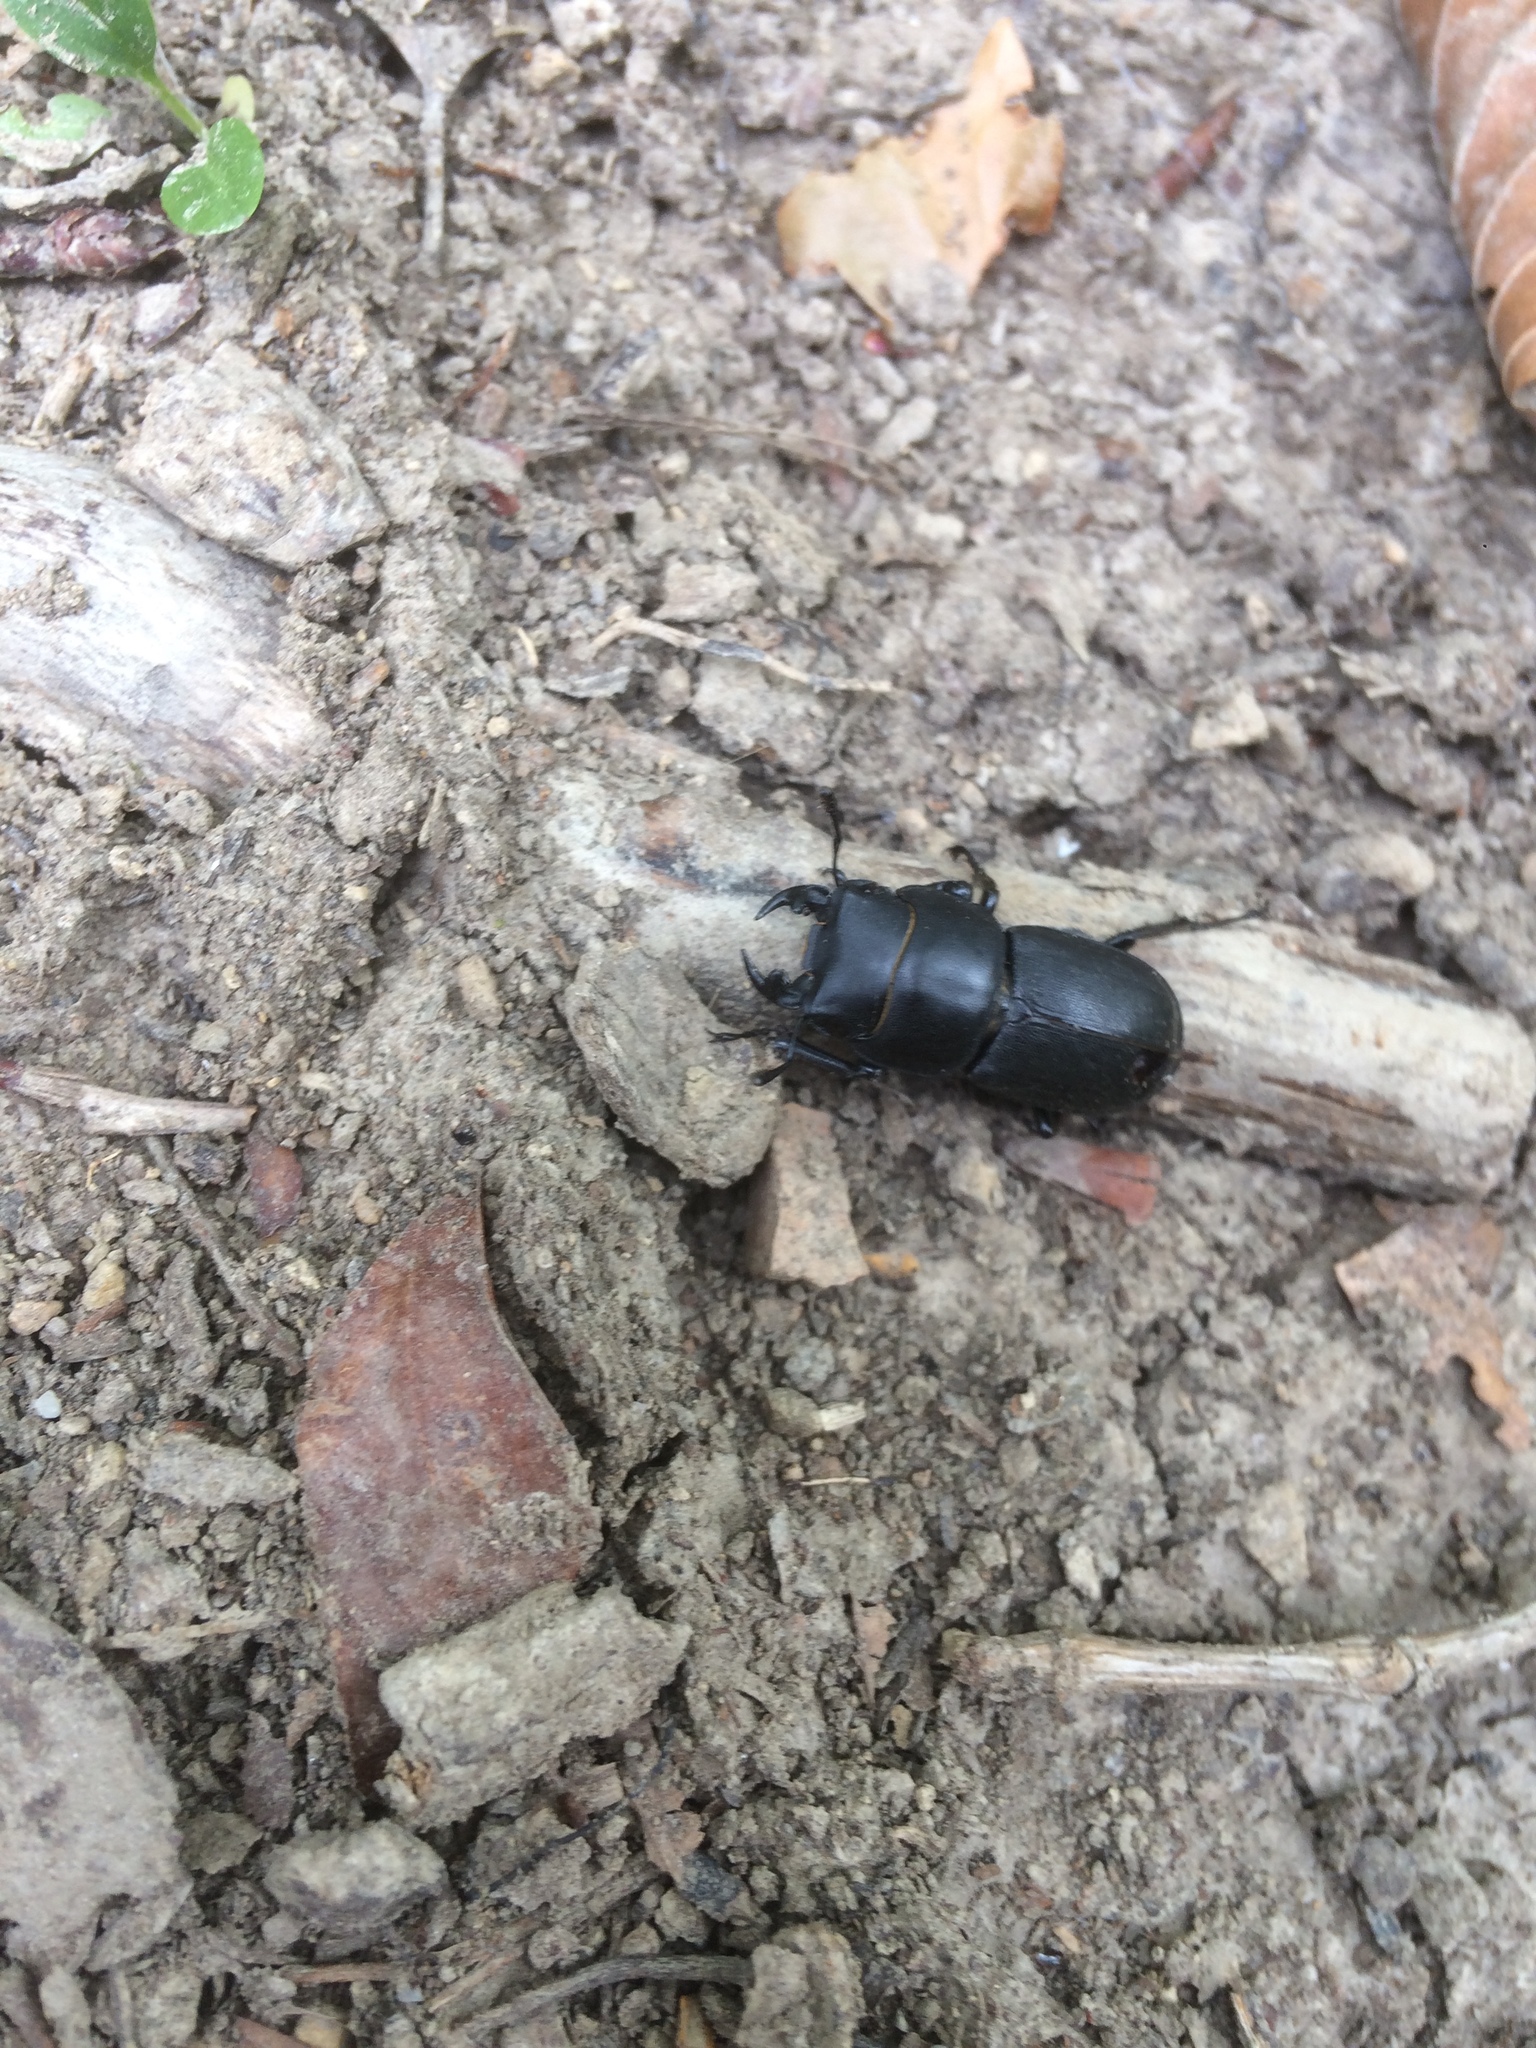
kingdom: Animalia
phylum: Arthropoda
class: Insecta
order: Coleoptera
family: Lucanidae
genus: Dorcus
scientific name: Dorcus parallelipipedus
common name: Lesser stag beetle
